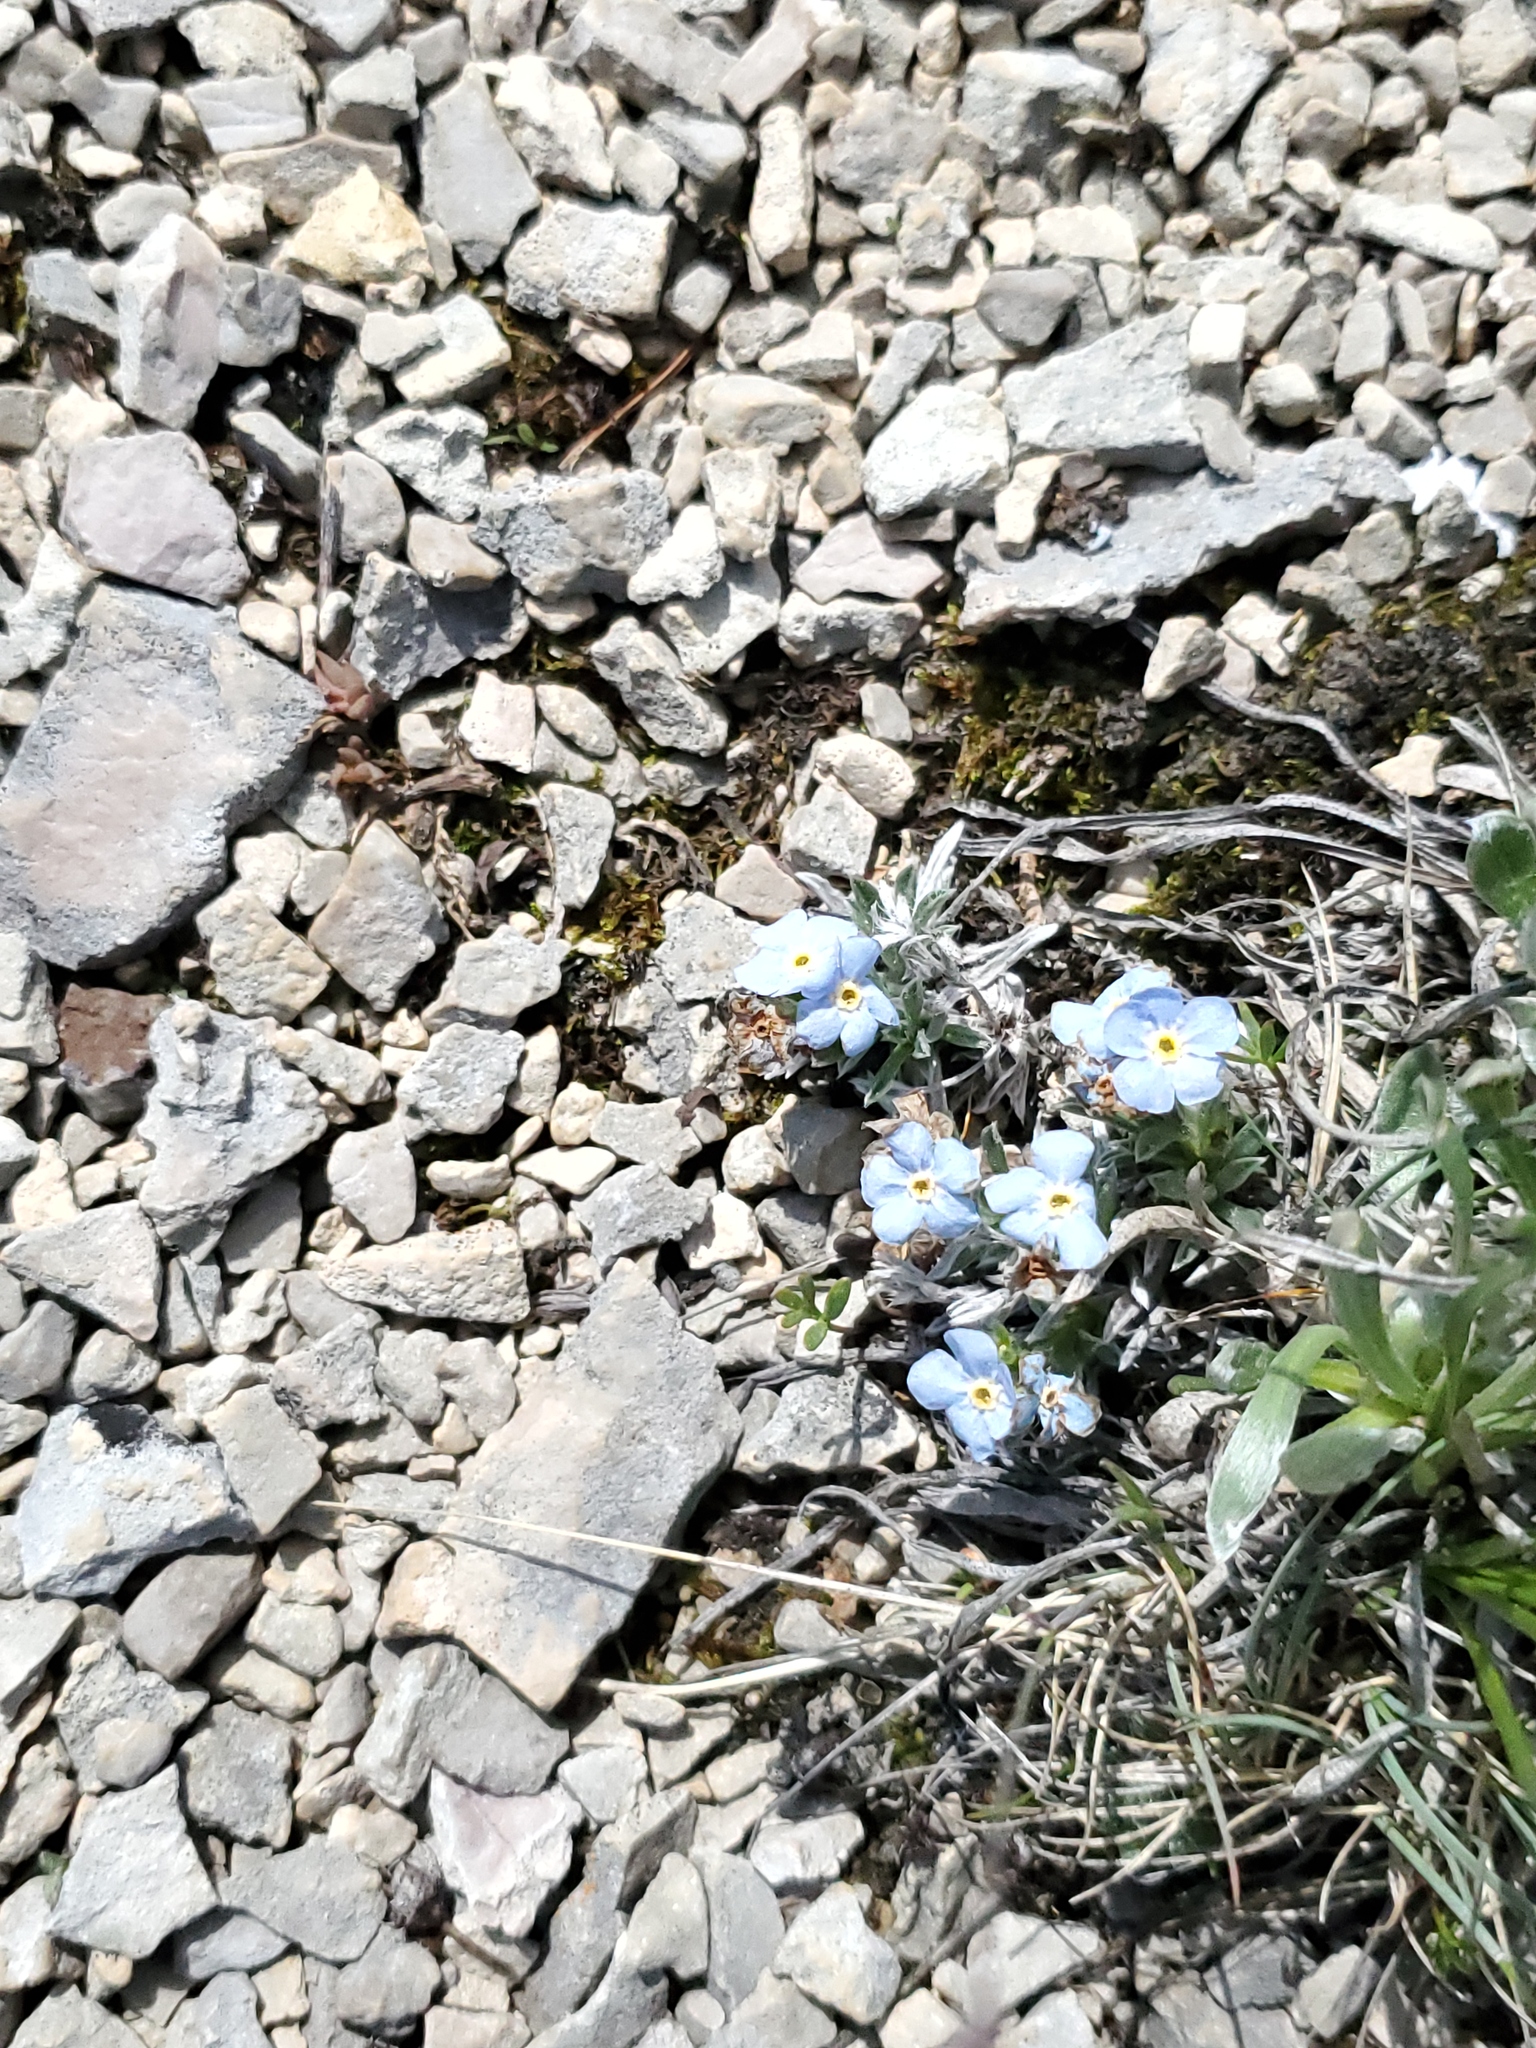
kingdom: Plantae
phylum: Tracheophyta
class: Magnoliopsida
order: Boraginales
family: Boraginaceae
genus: Eritrichium
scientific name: Eritrichium howardii
